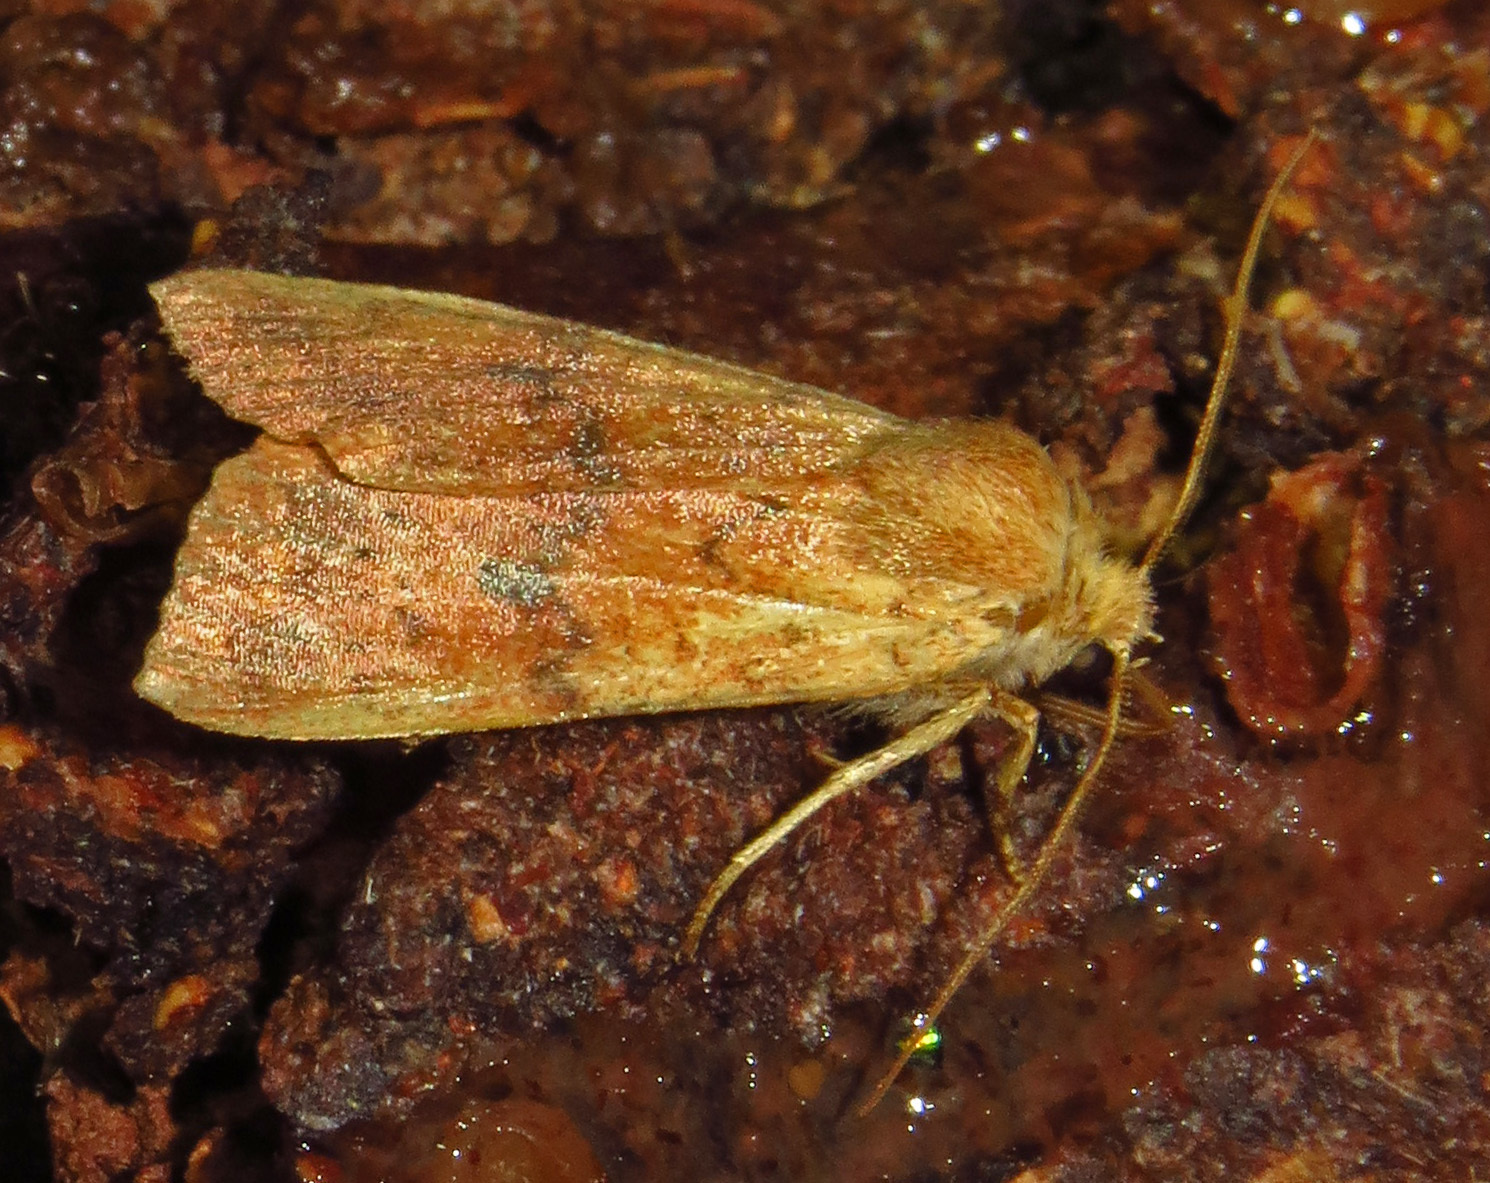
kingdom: Animalia
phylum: Arthropoda
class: Insecta
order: Lepidoptera
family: Noctuidae
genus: Agrochola
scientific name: Agrochola bicolorago
